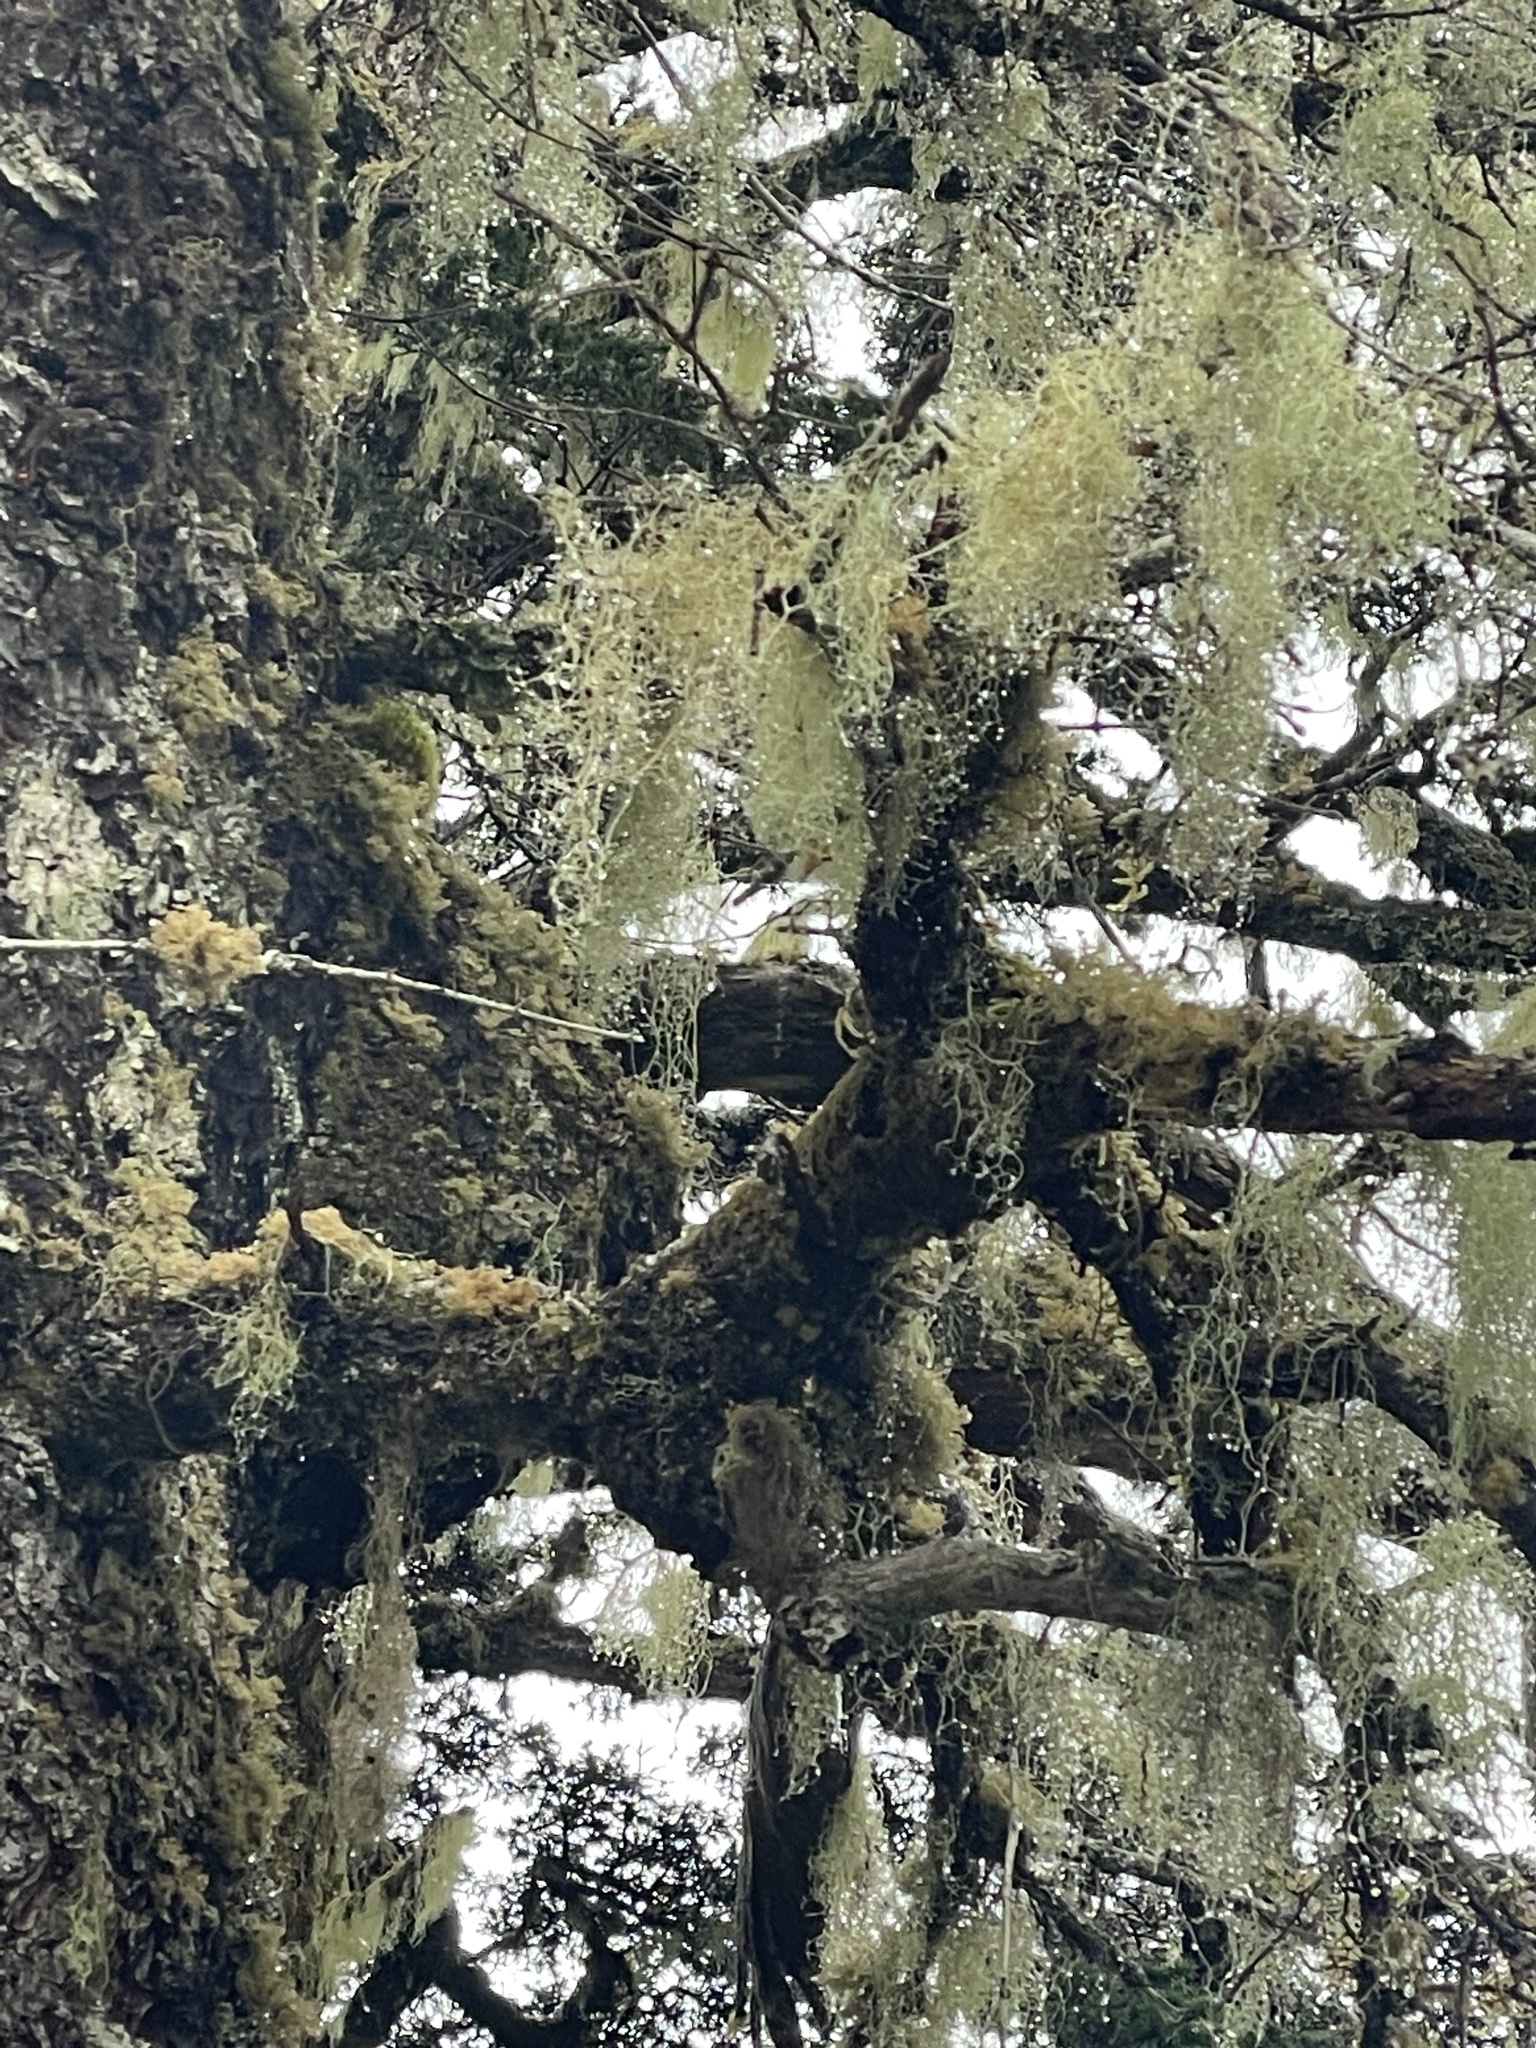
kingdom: Fungi
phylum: Ascomycota
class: Lecanoromycetes
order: Lecanorales
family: Parmeliaceae
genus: Alectoria
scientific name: Alectoria sarmentosa
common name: Witch's hair
